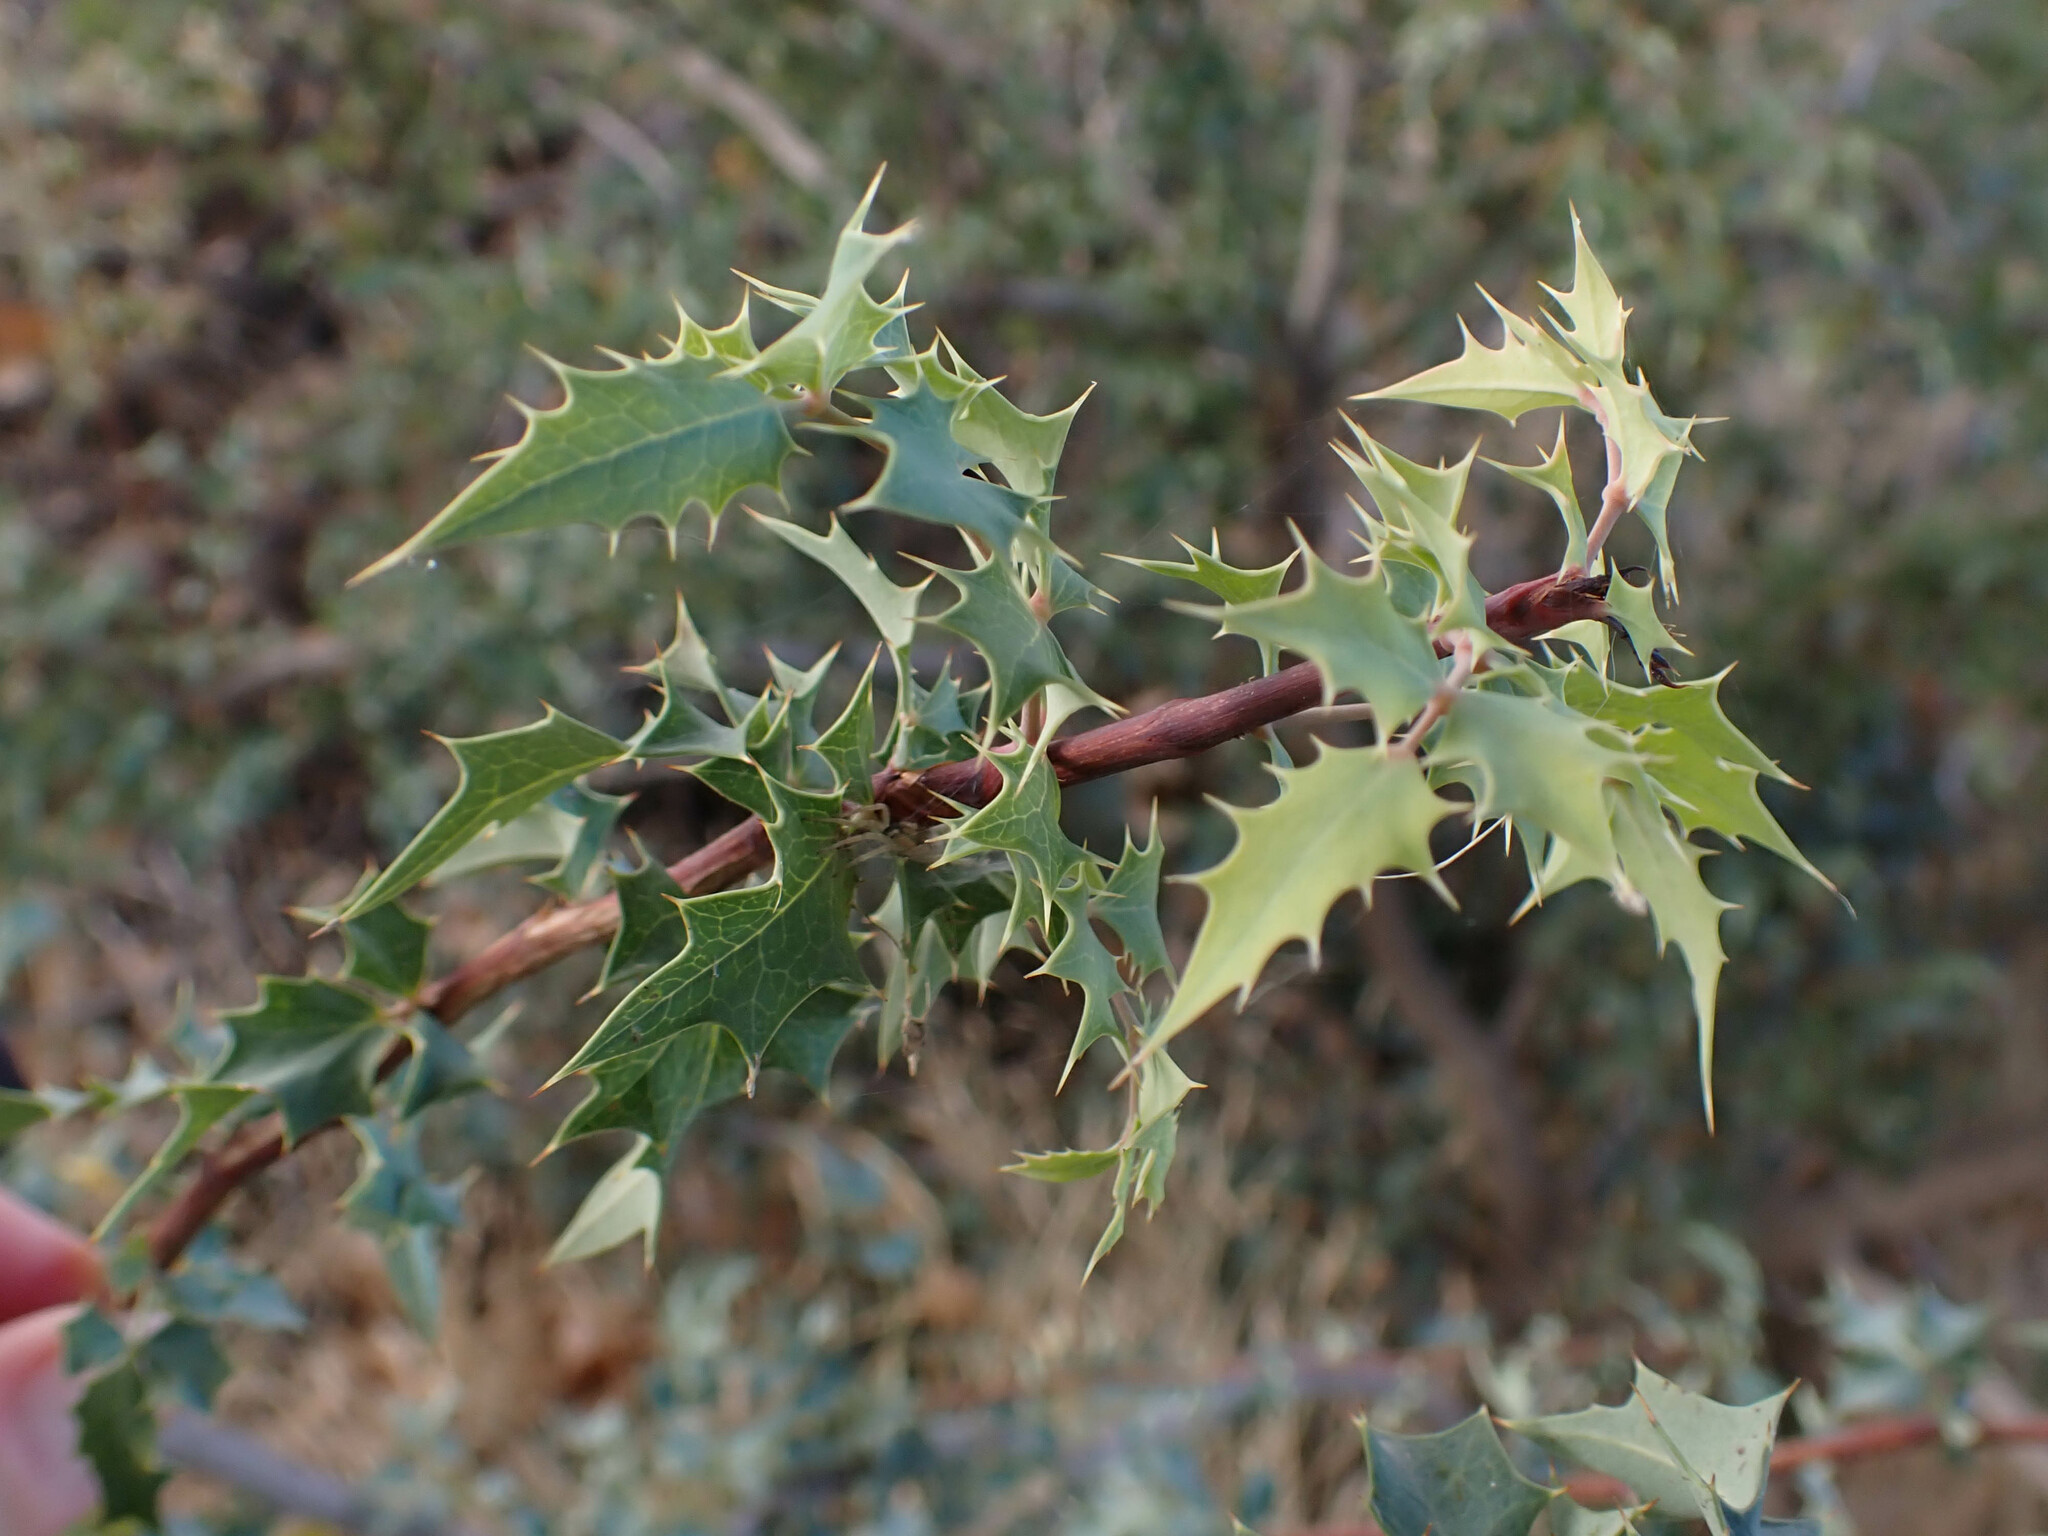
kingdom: Plantae
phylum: Tracheophyta
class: Magnoliopsida
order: Ranunculales
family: Berberidaceae
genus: Alloberberis
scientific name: Alloberberis fremontii
